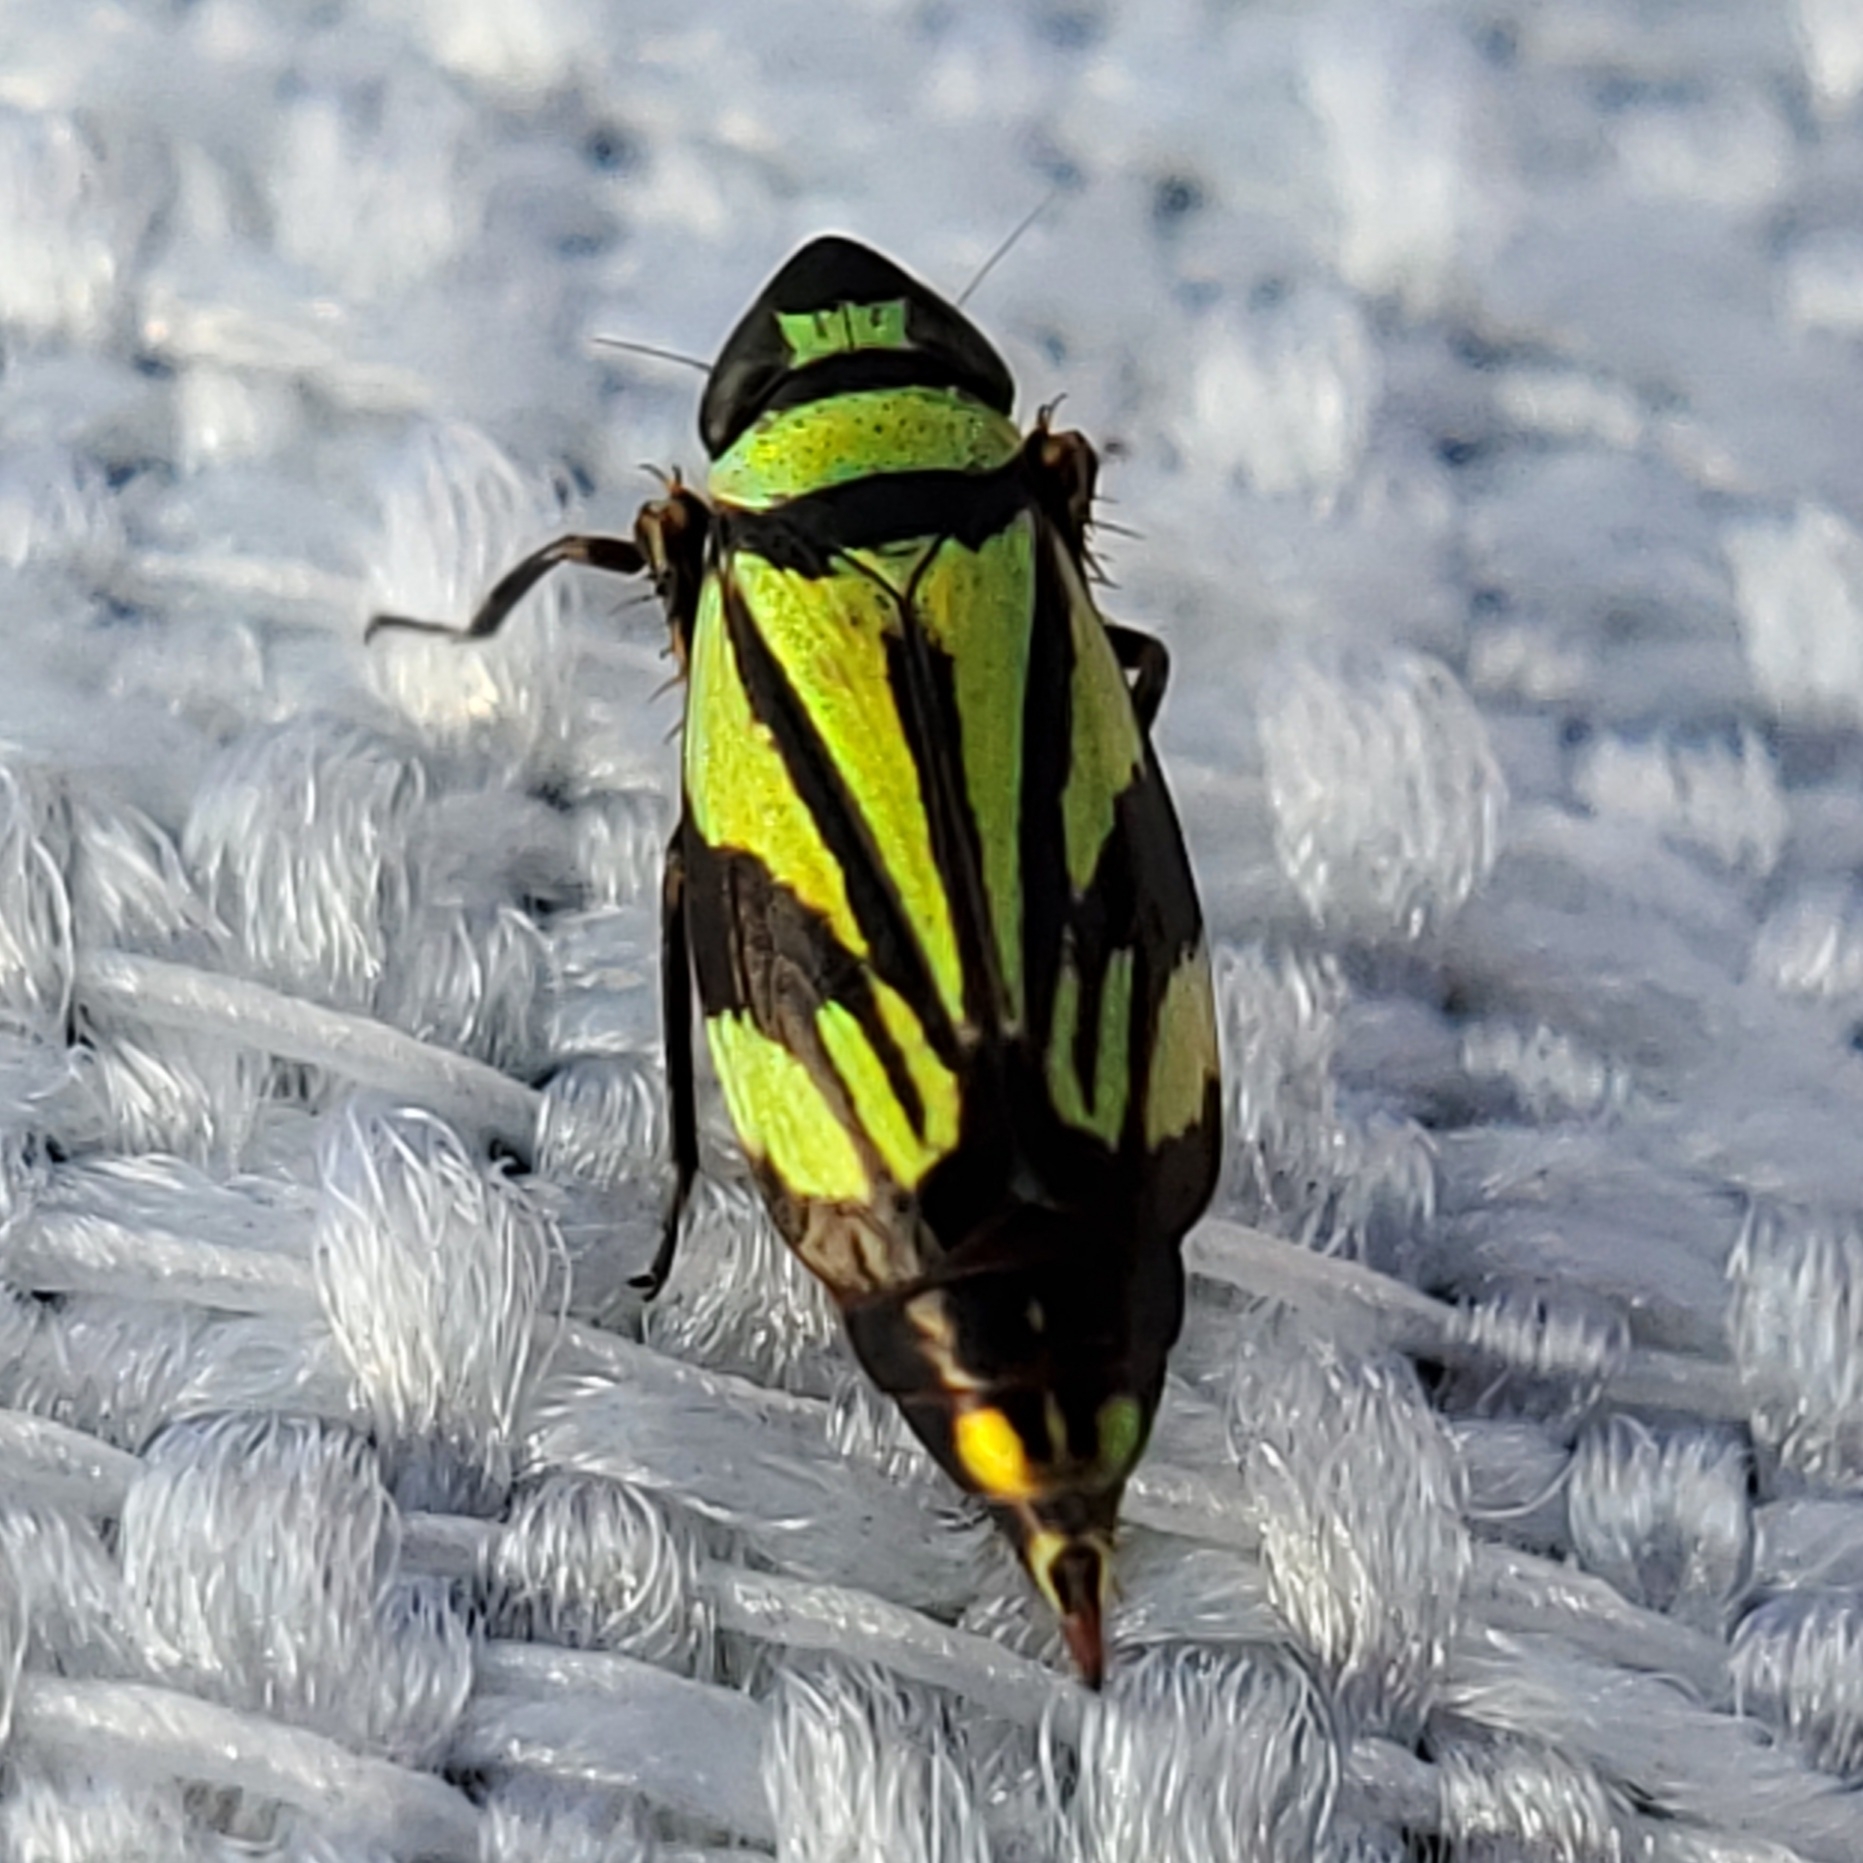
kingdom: Animalia
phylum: Arthropoda
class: Insecta
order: Hemiptera
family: Cicadellidae
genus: Stirellus
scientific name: Stirellus bicolor
